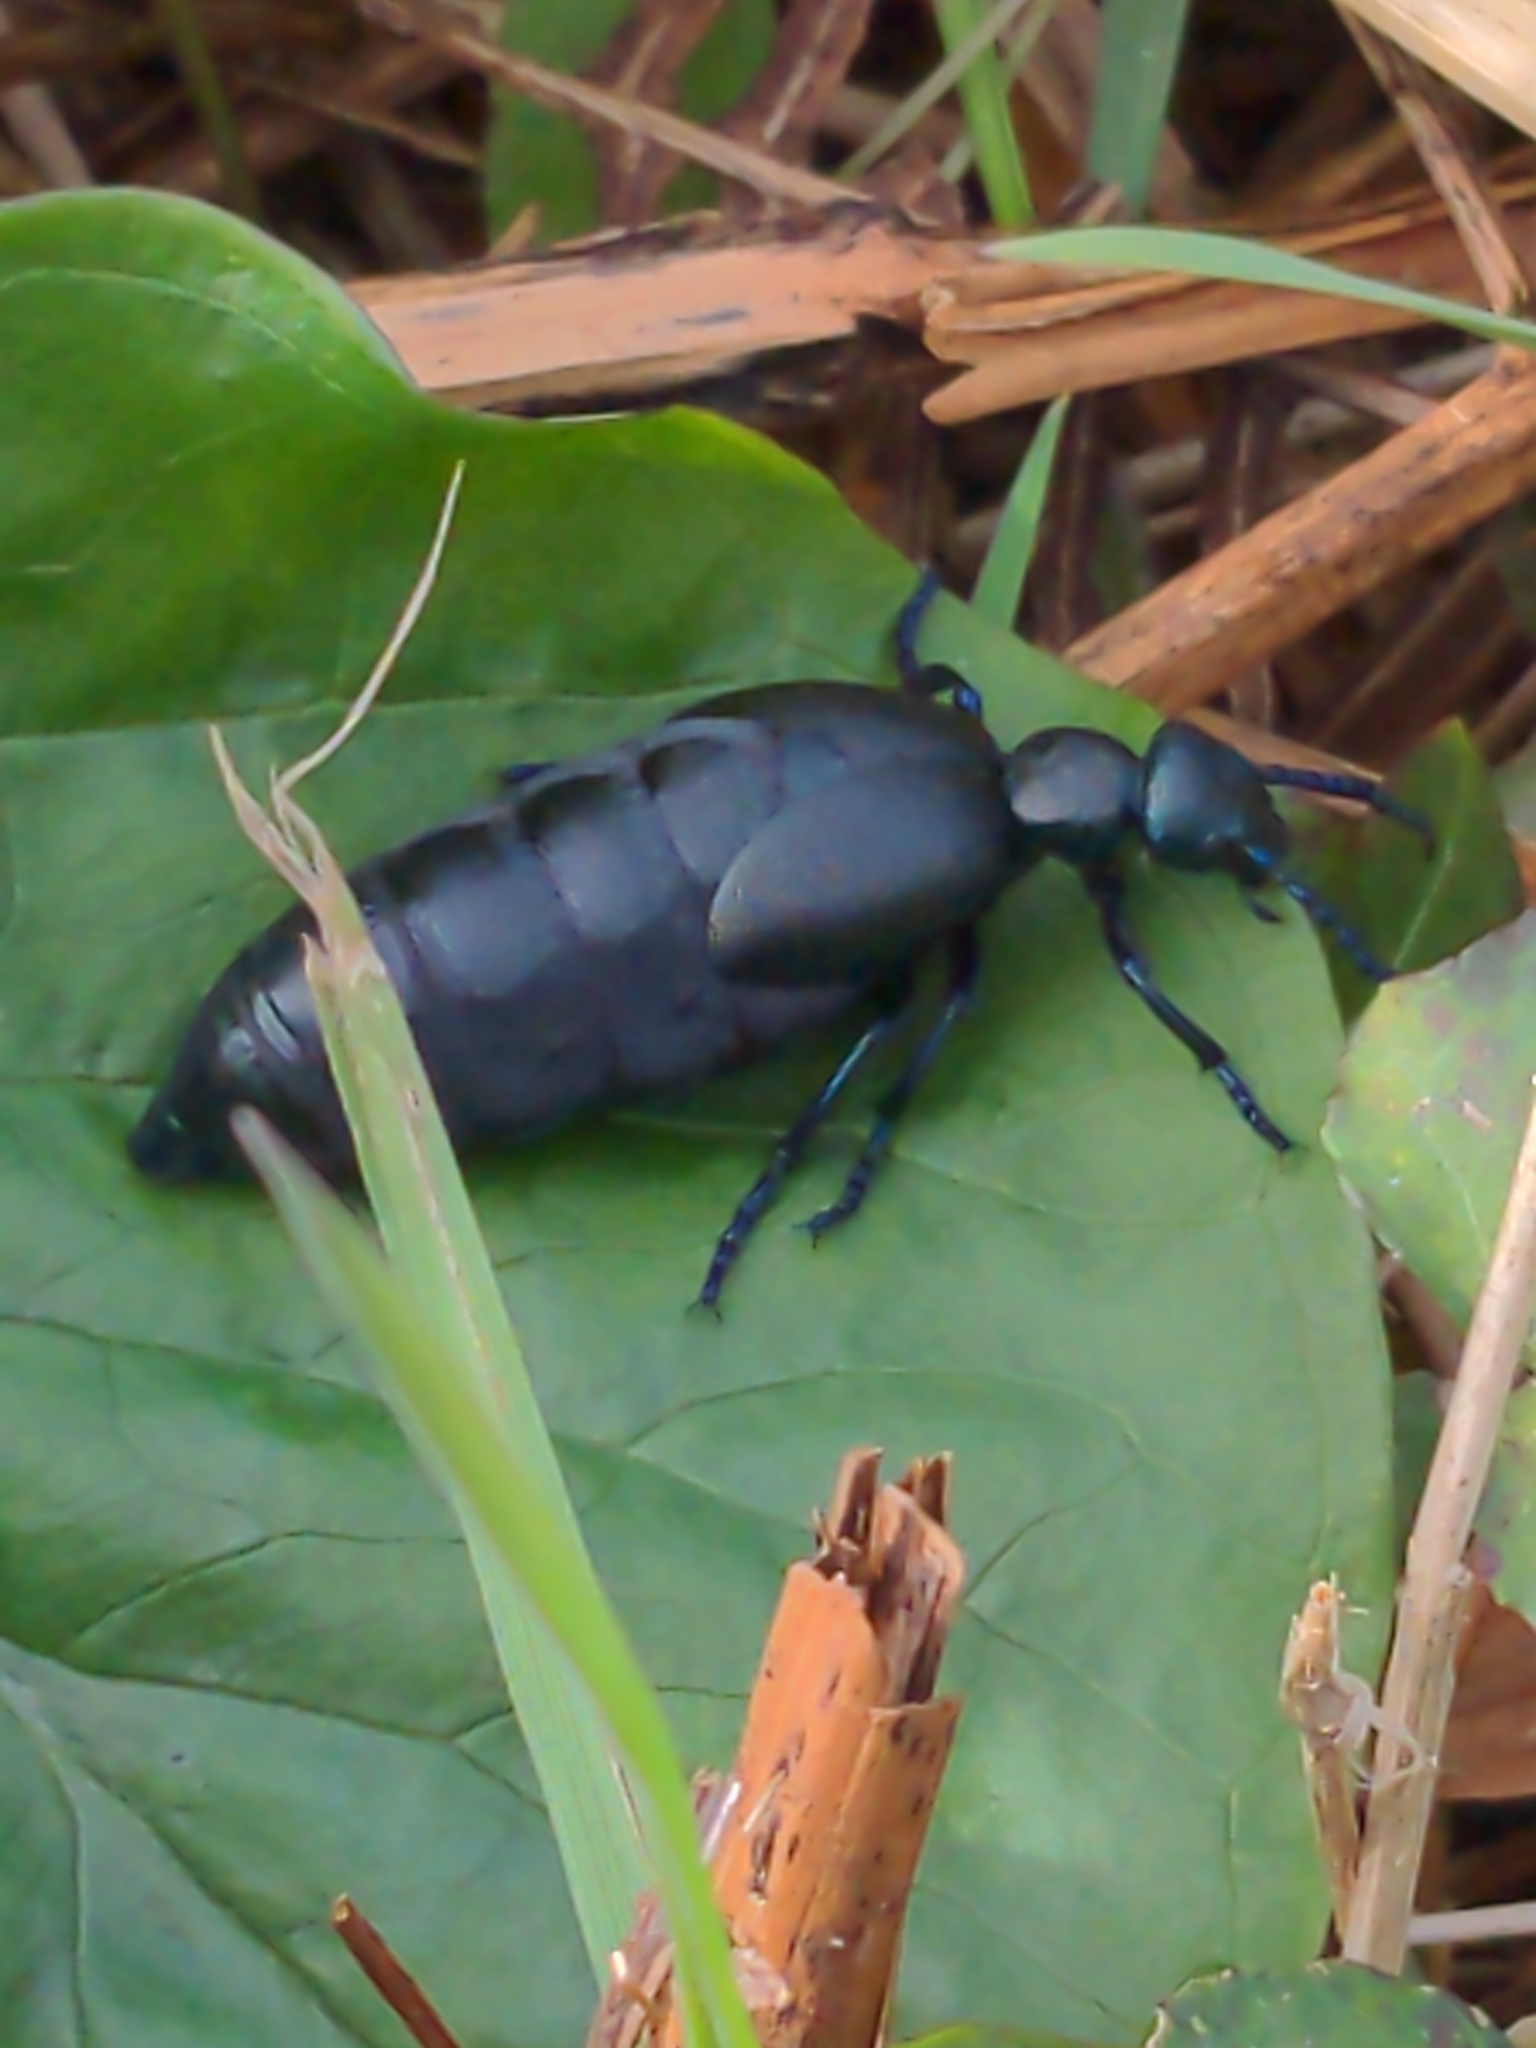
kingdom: Animalia
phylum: Arthropoda
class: Insecta
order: Coleoptera
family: Meloidae
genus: Meloe
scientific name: Meloe proscarabaeus
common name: Black oil-beetle
